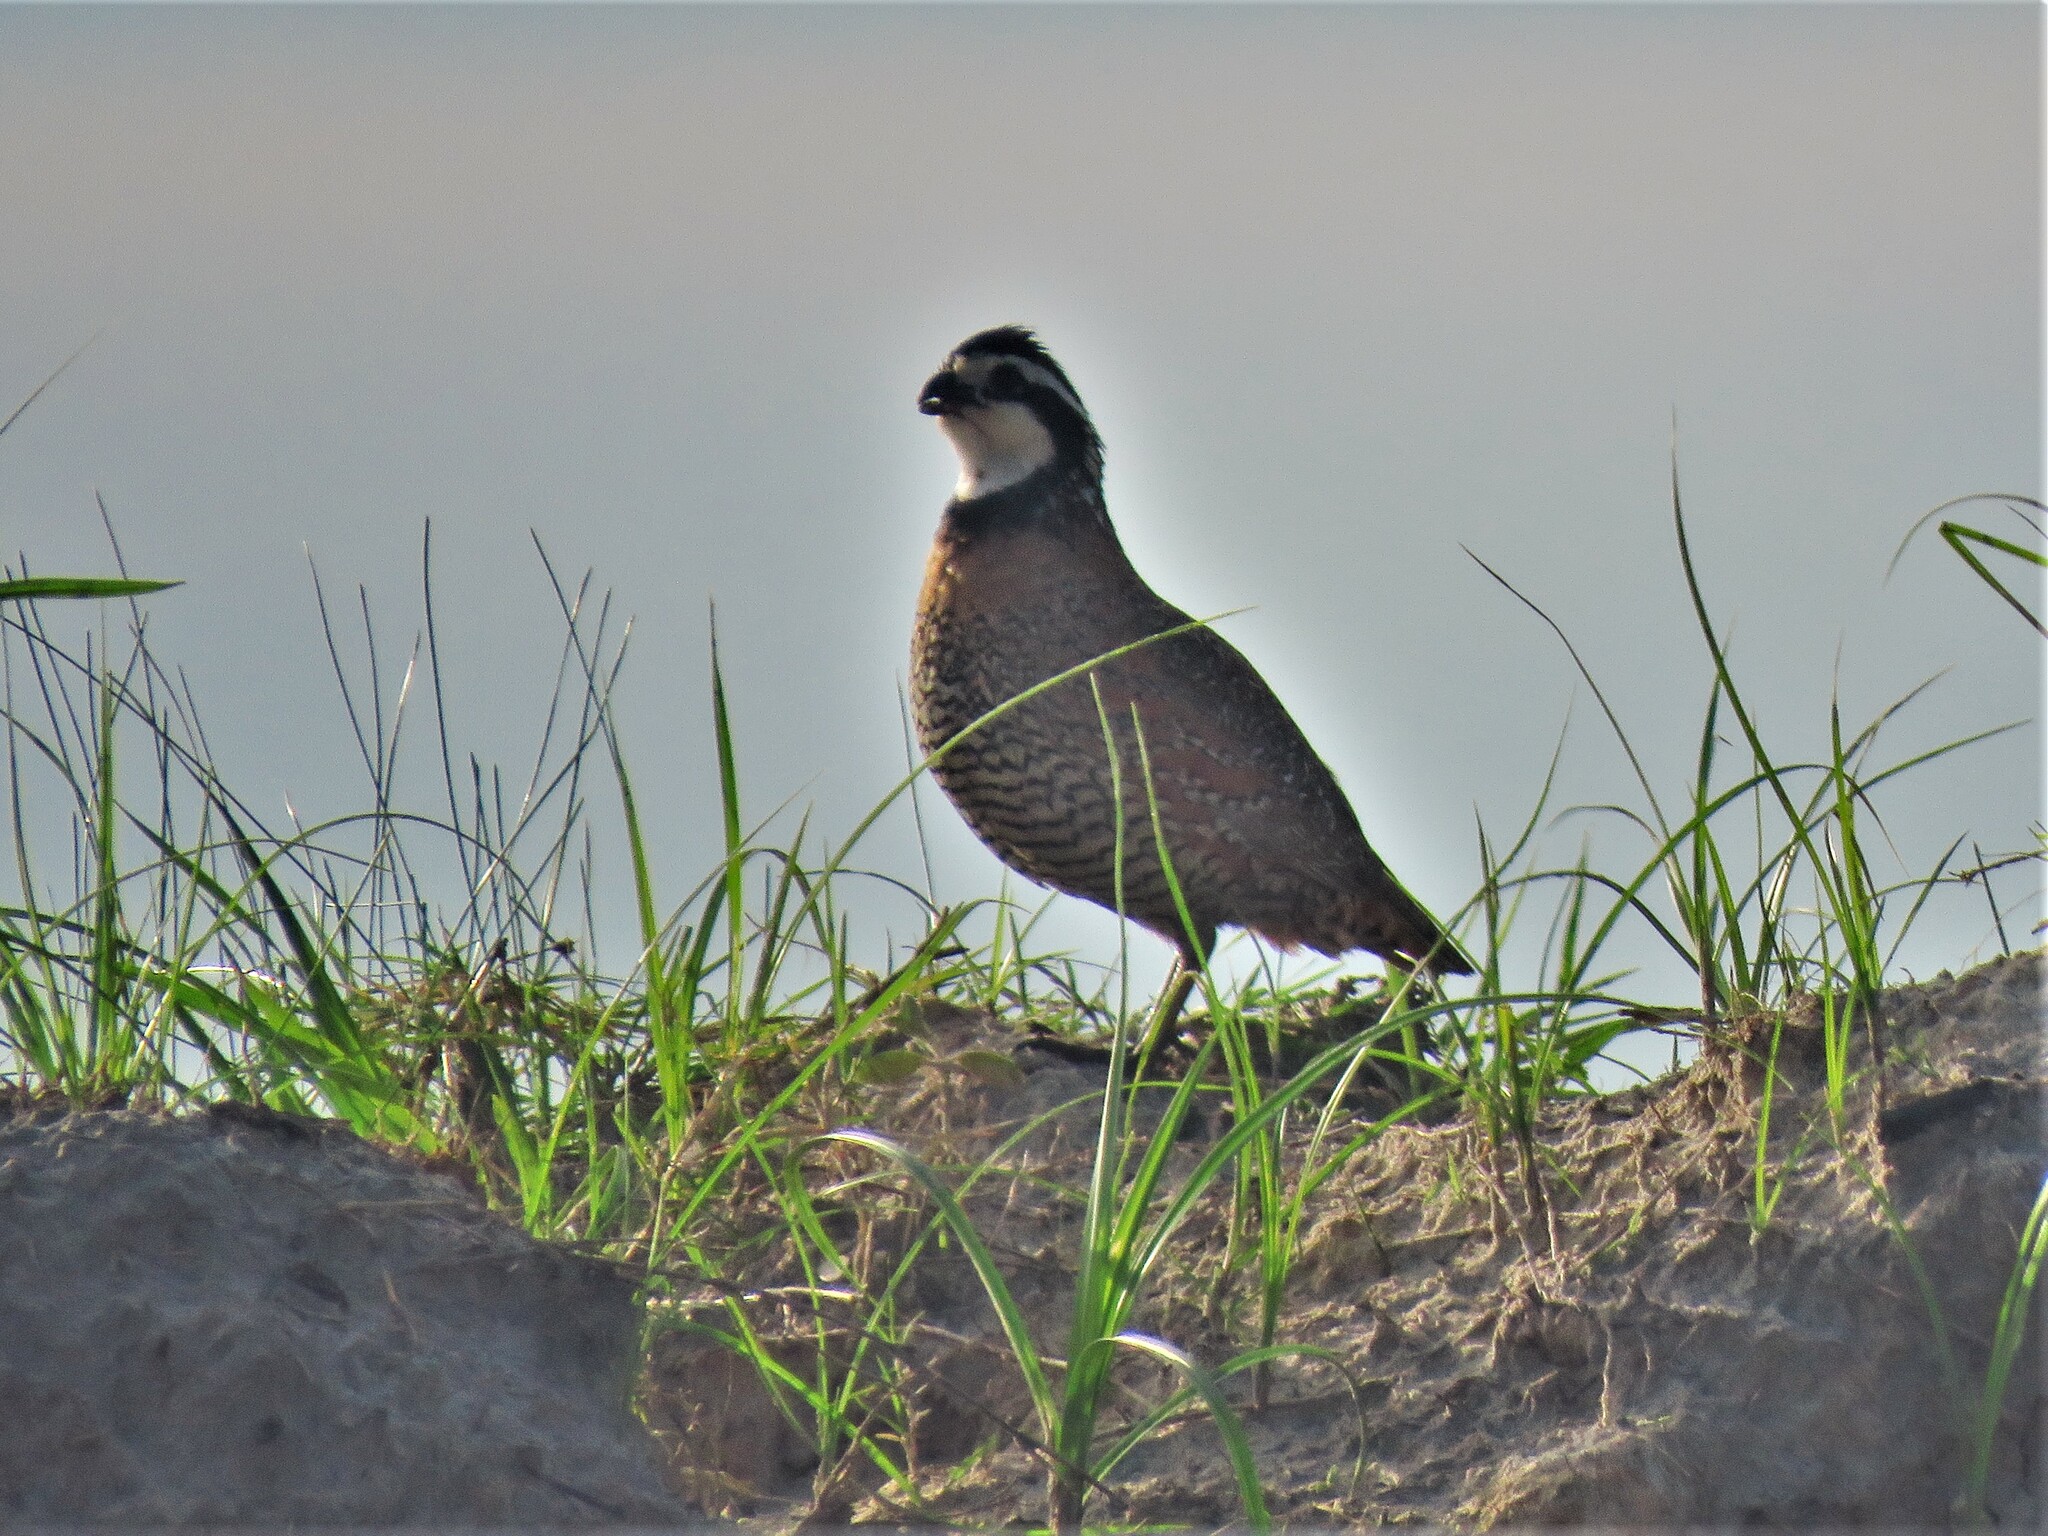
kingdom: Animalia
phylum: Chordata
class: Aves
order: Galliformes
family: Odontophoridae
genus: Colinus
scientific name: Colinus virginianus
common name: Northern bobwhite
